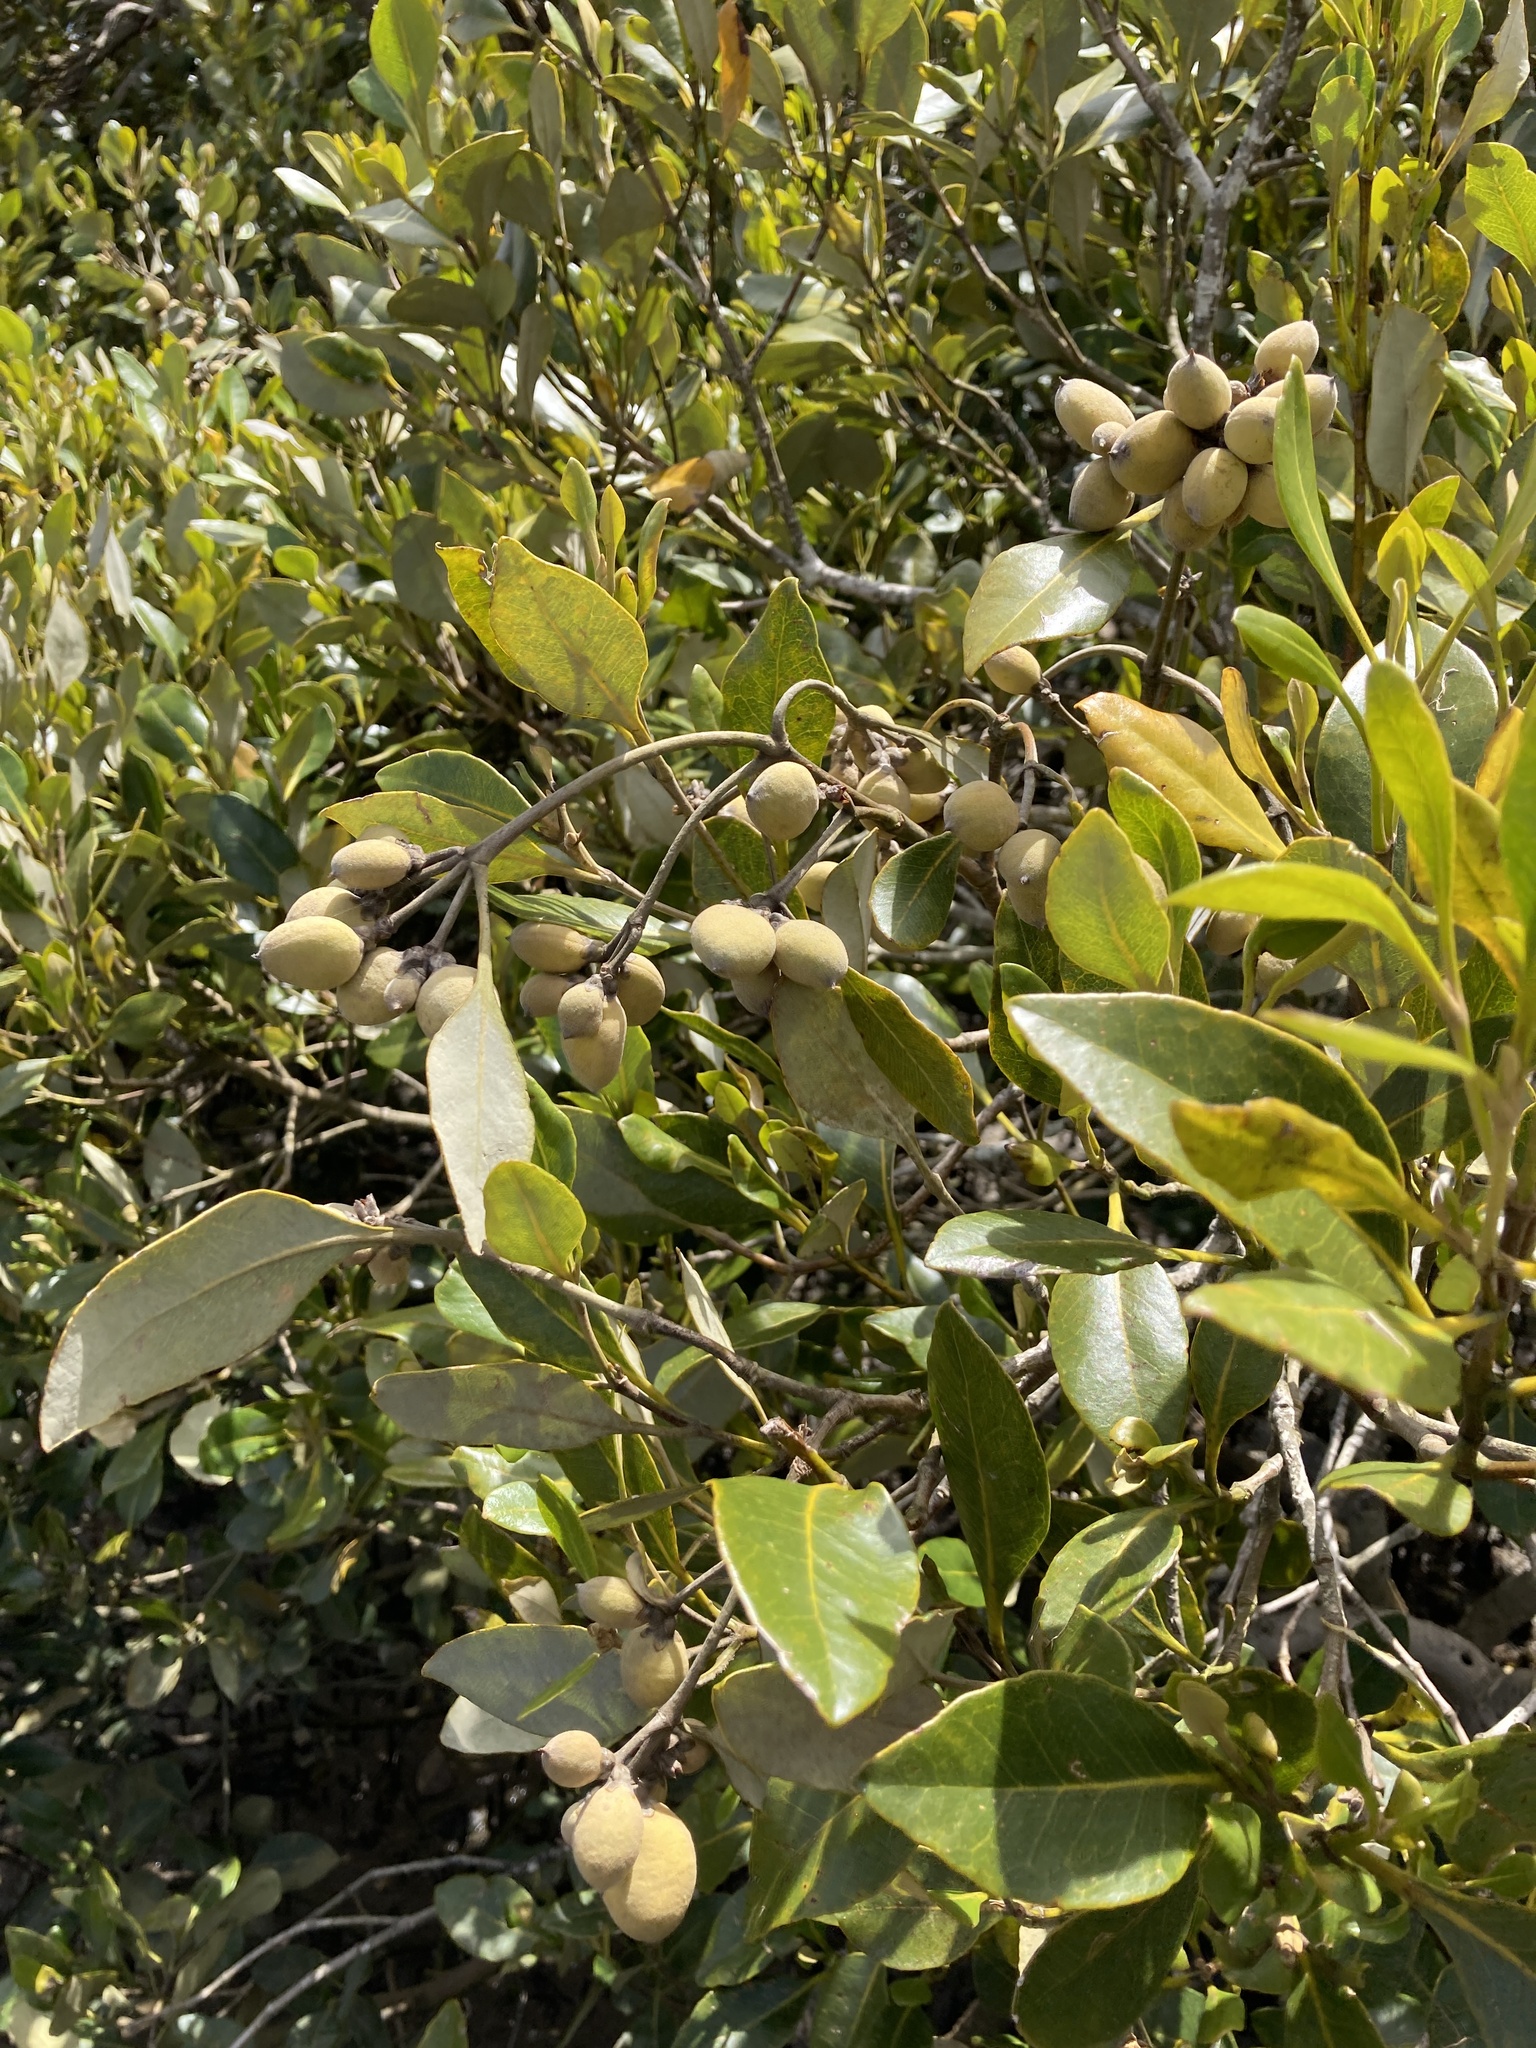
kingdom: Plantae
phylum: Tracheophyta
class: Magnoliopsida
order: Lamiales
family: Acanthaceae
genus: Avicennia
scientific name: Avicennia marina
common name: Gray mangrove
